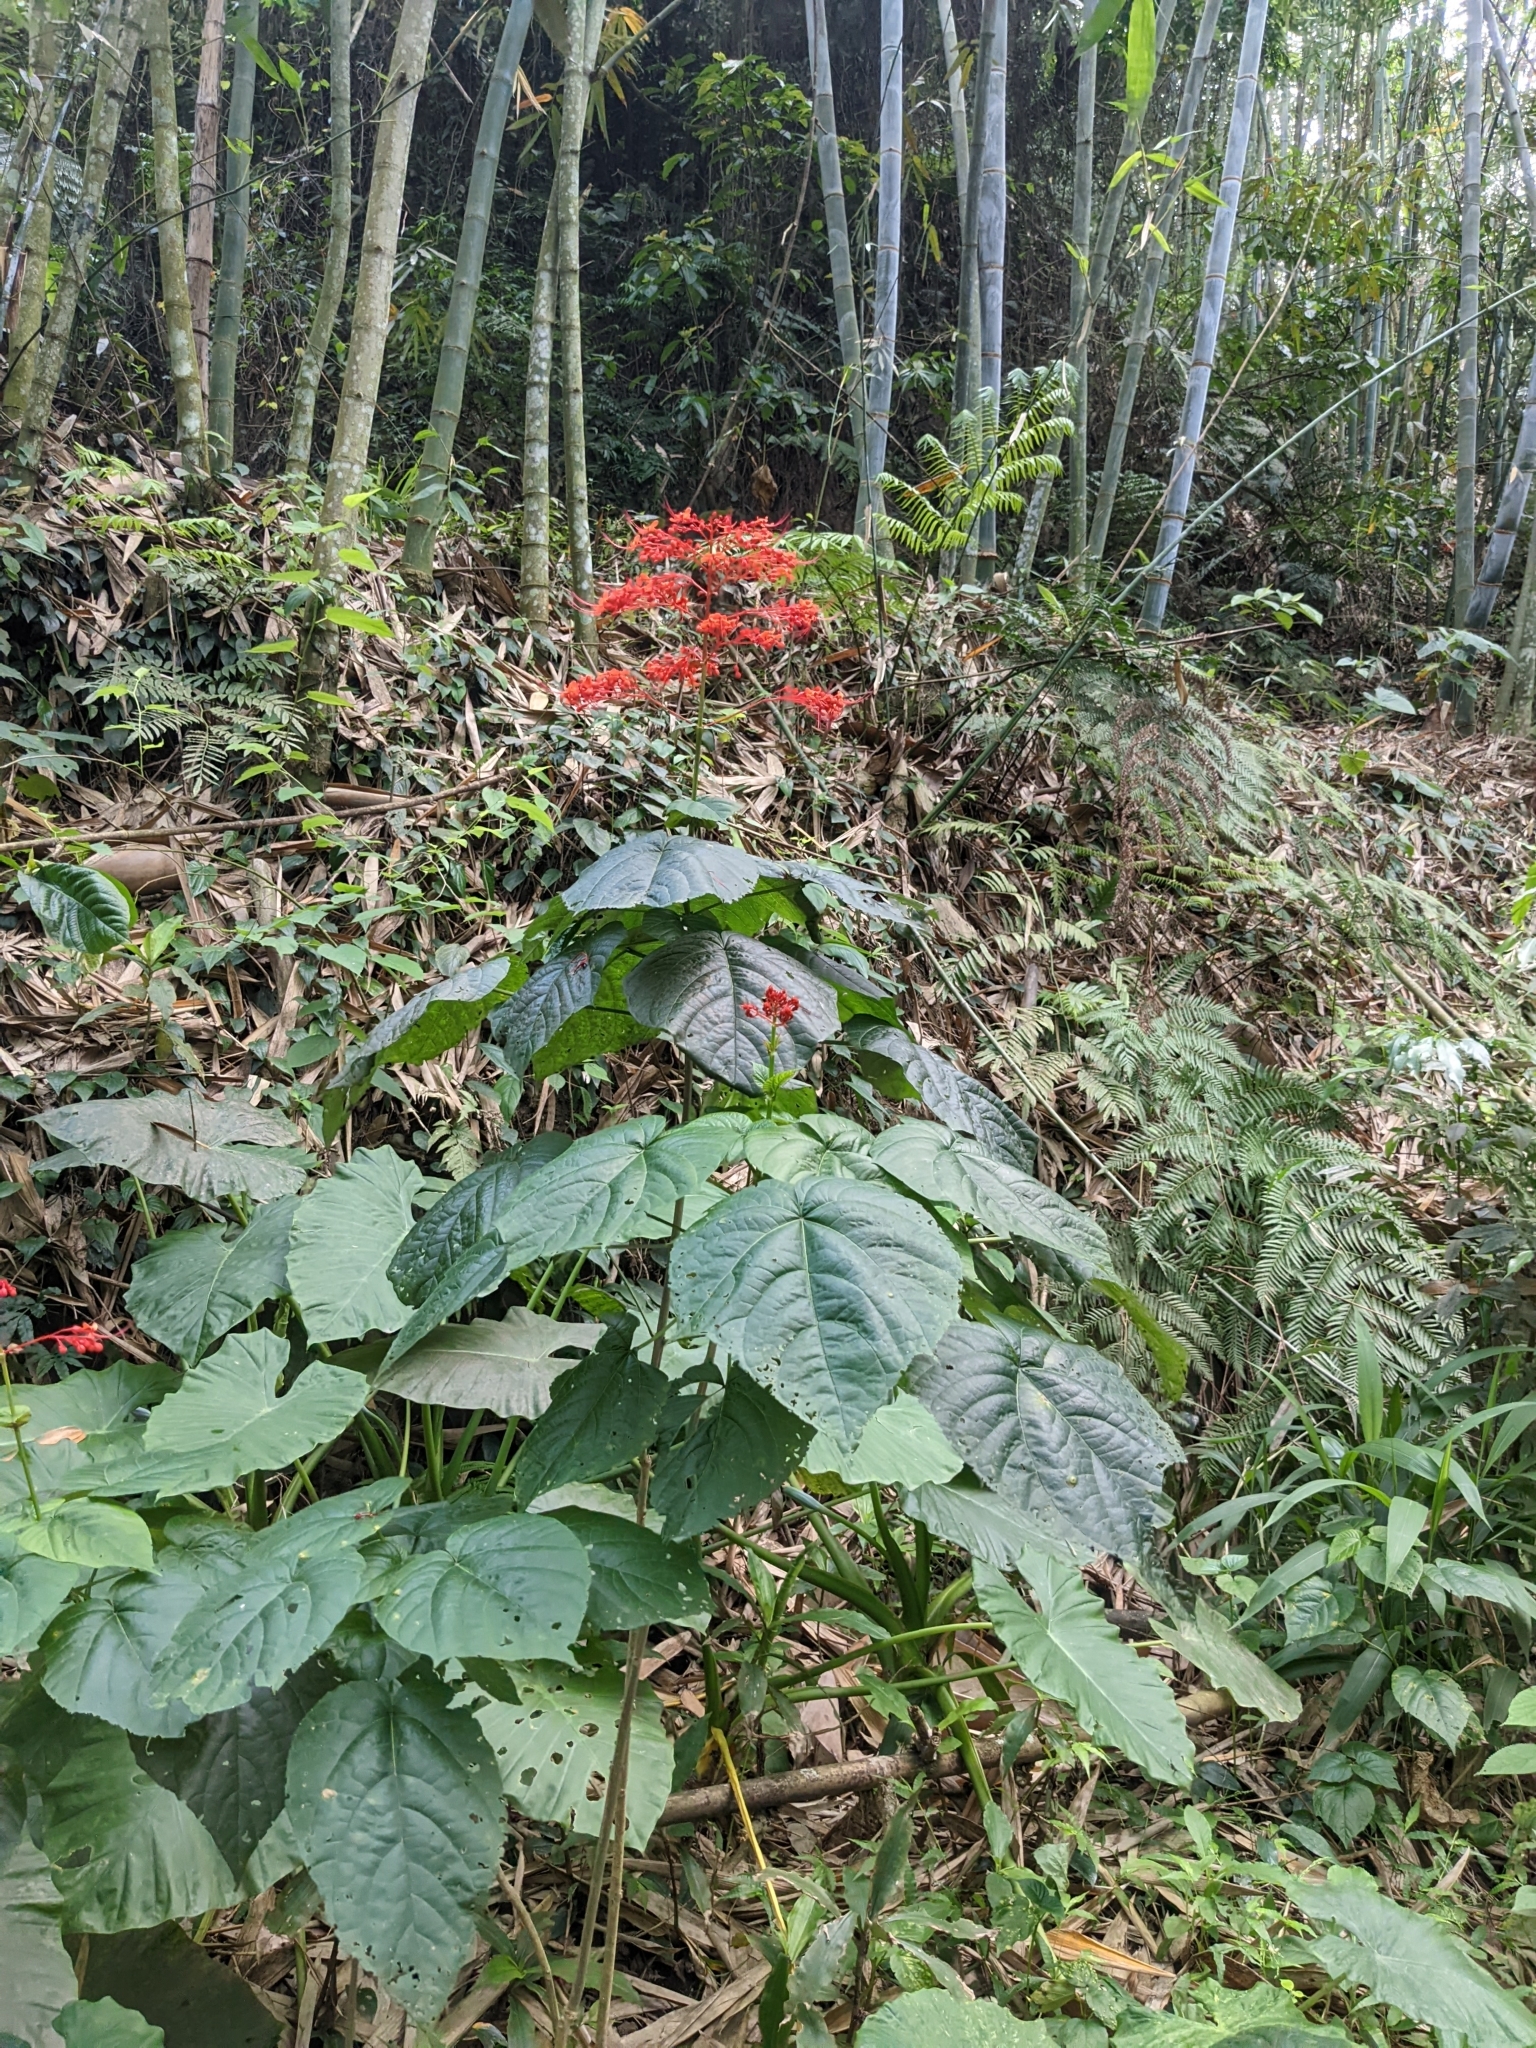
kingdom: Plantae
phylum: Tracheophyta
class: Magnoliopsida
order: Lamiales
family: Lamiaceae
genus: Clerodendrum
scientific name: Clerodendrum japonicum
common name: Japanese glorybower
